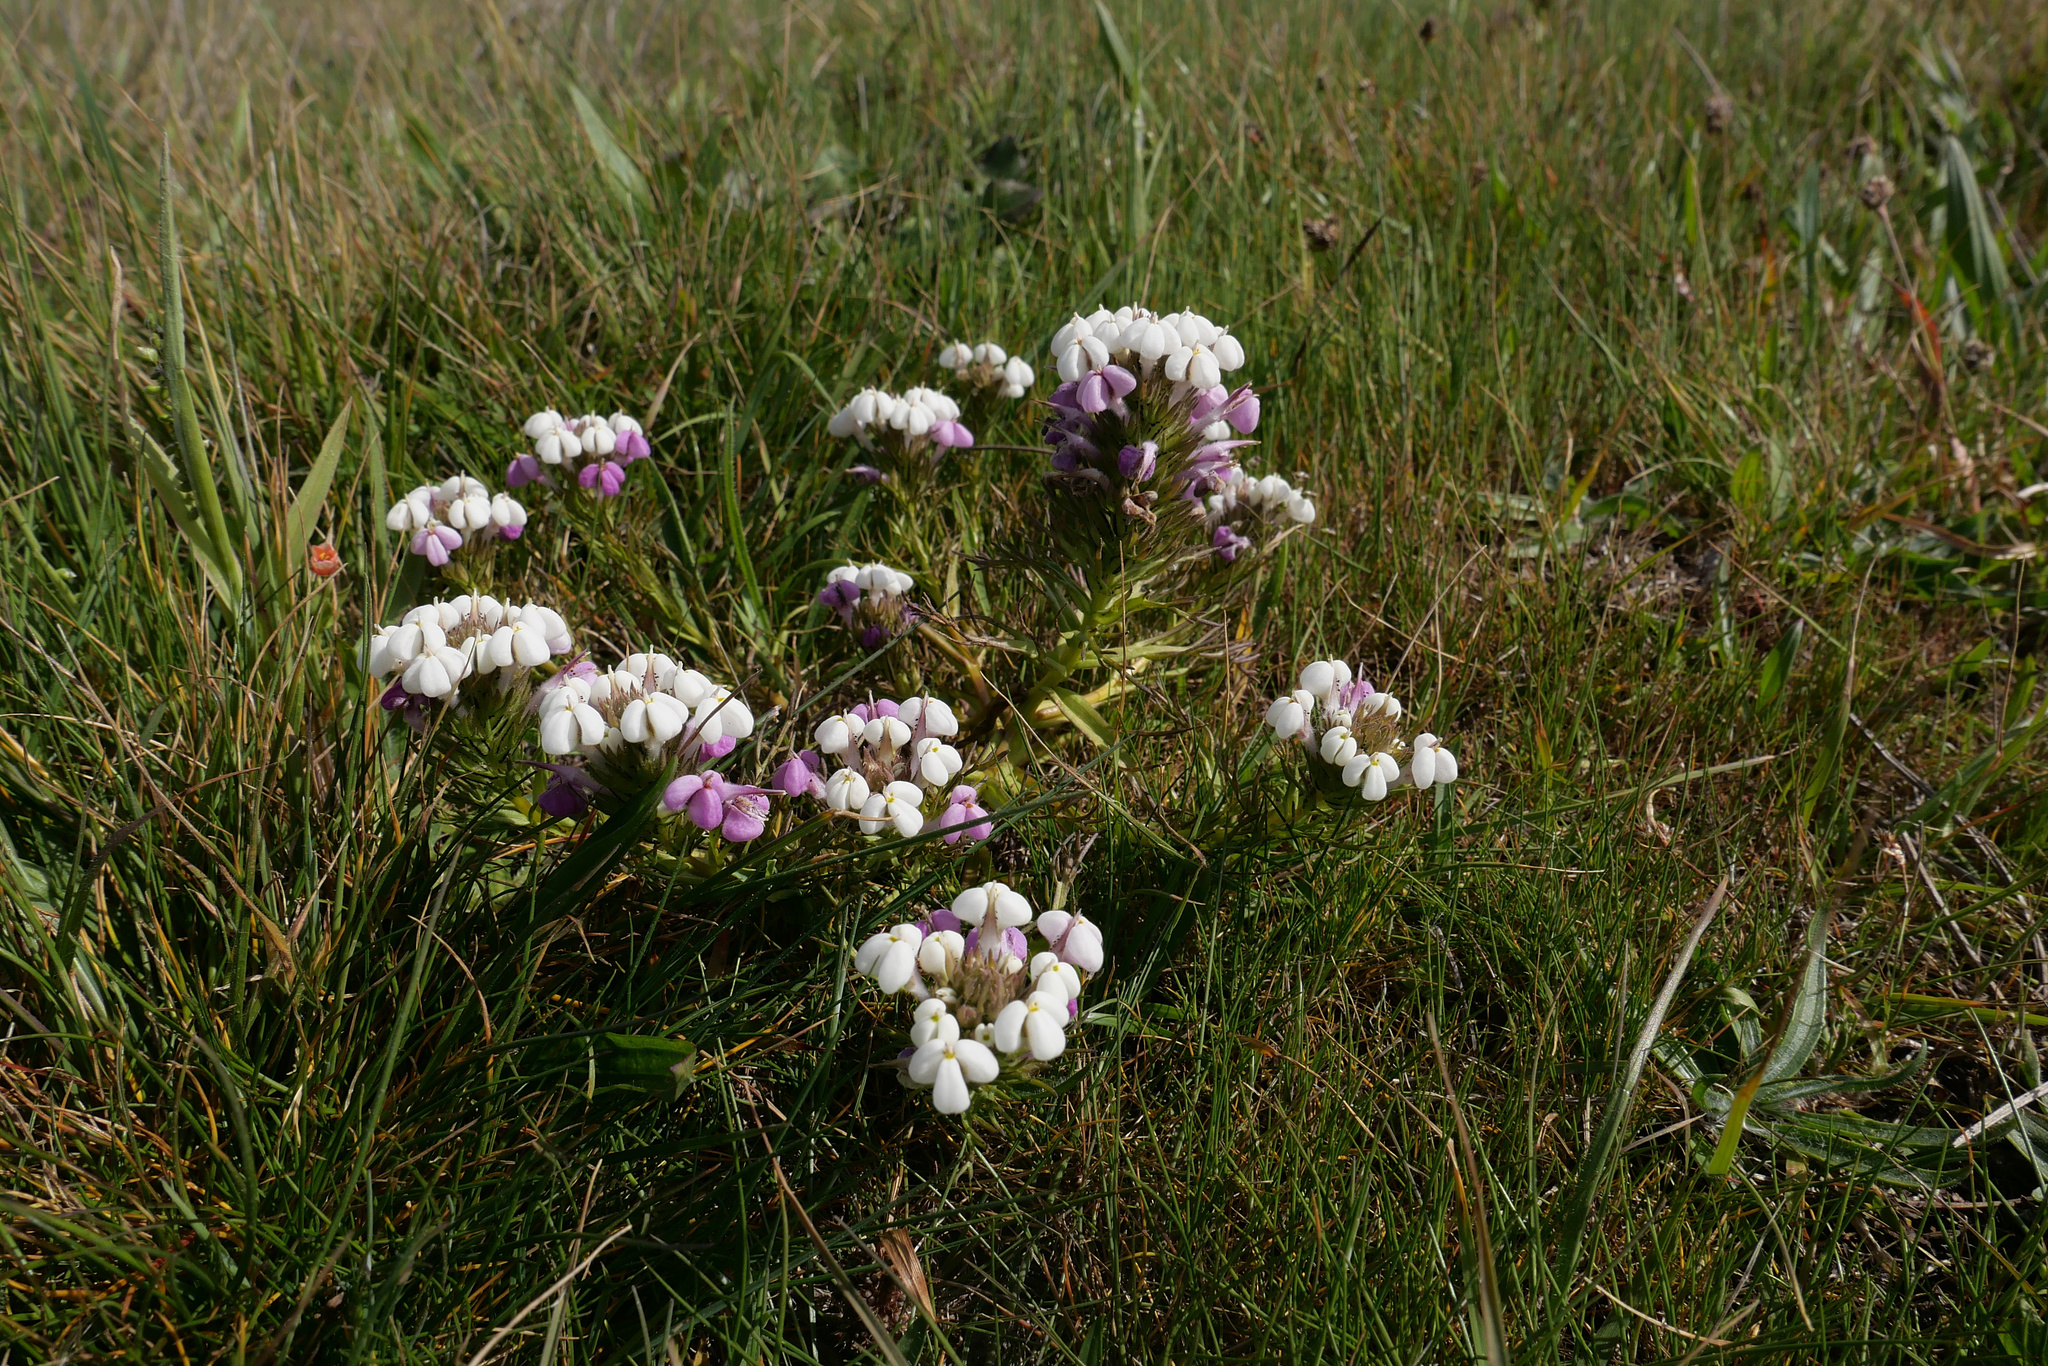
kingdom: Plantae
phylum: Tracheophyta
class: Magnoliopsida
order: Lamiales
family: Orobanchaceae
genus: Triphysaria
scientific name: Triphysaria versicolor
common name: Bearded false owl-clover
